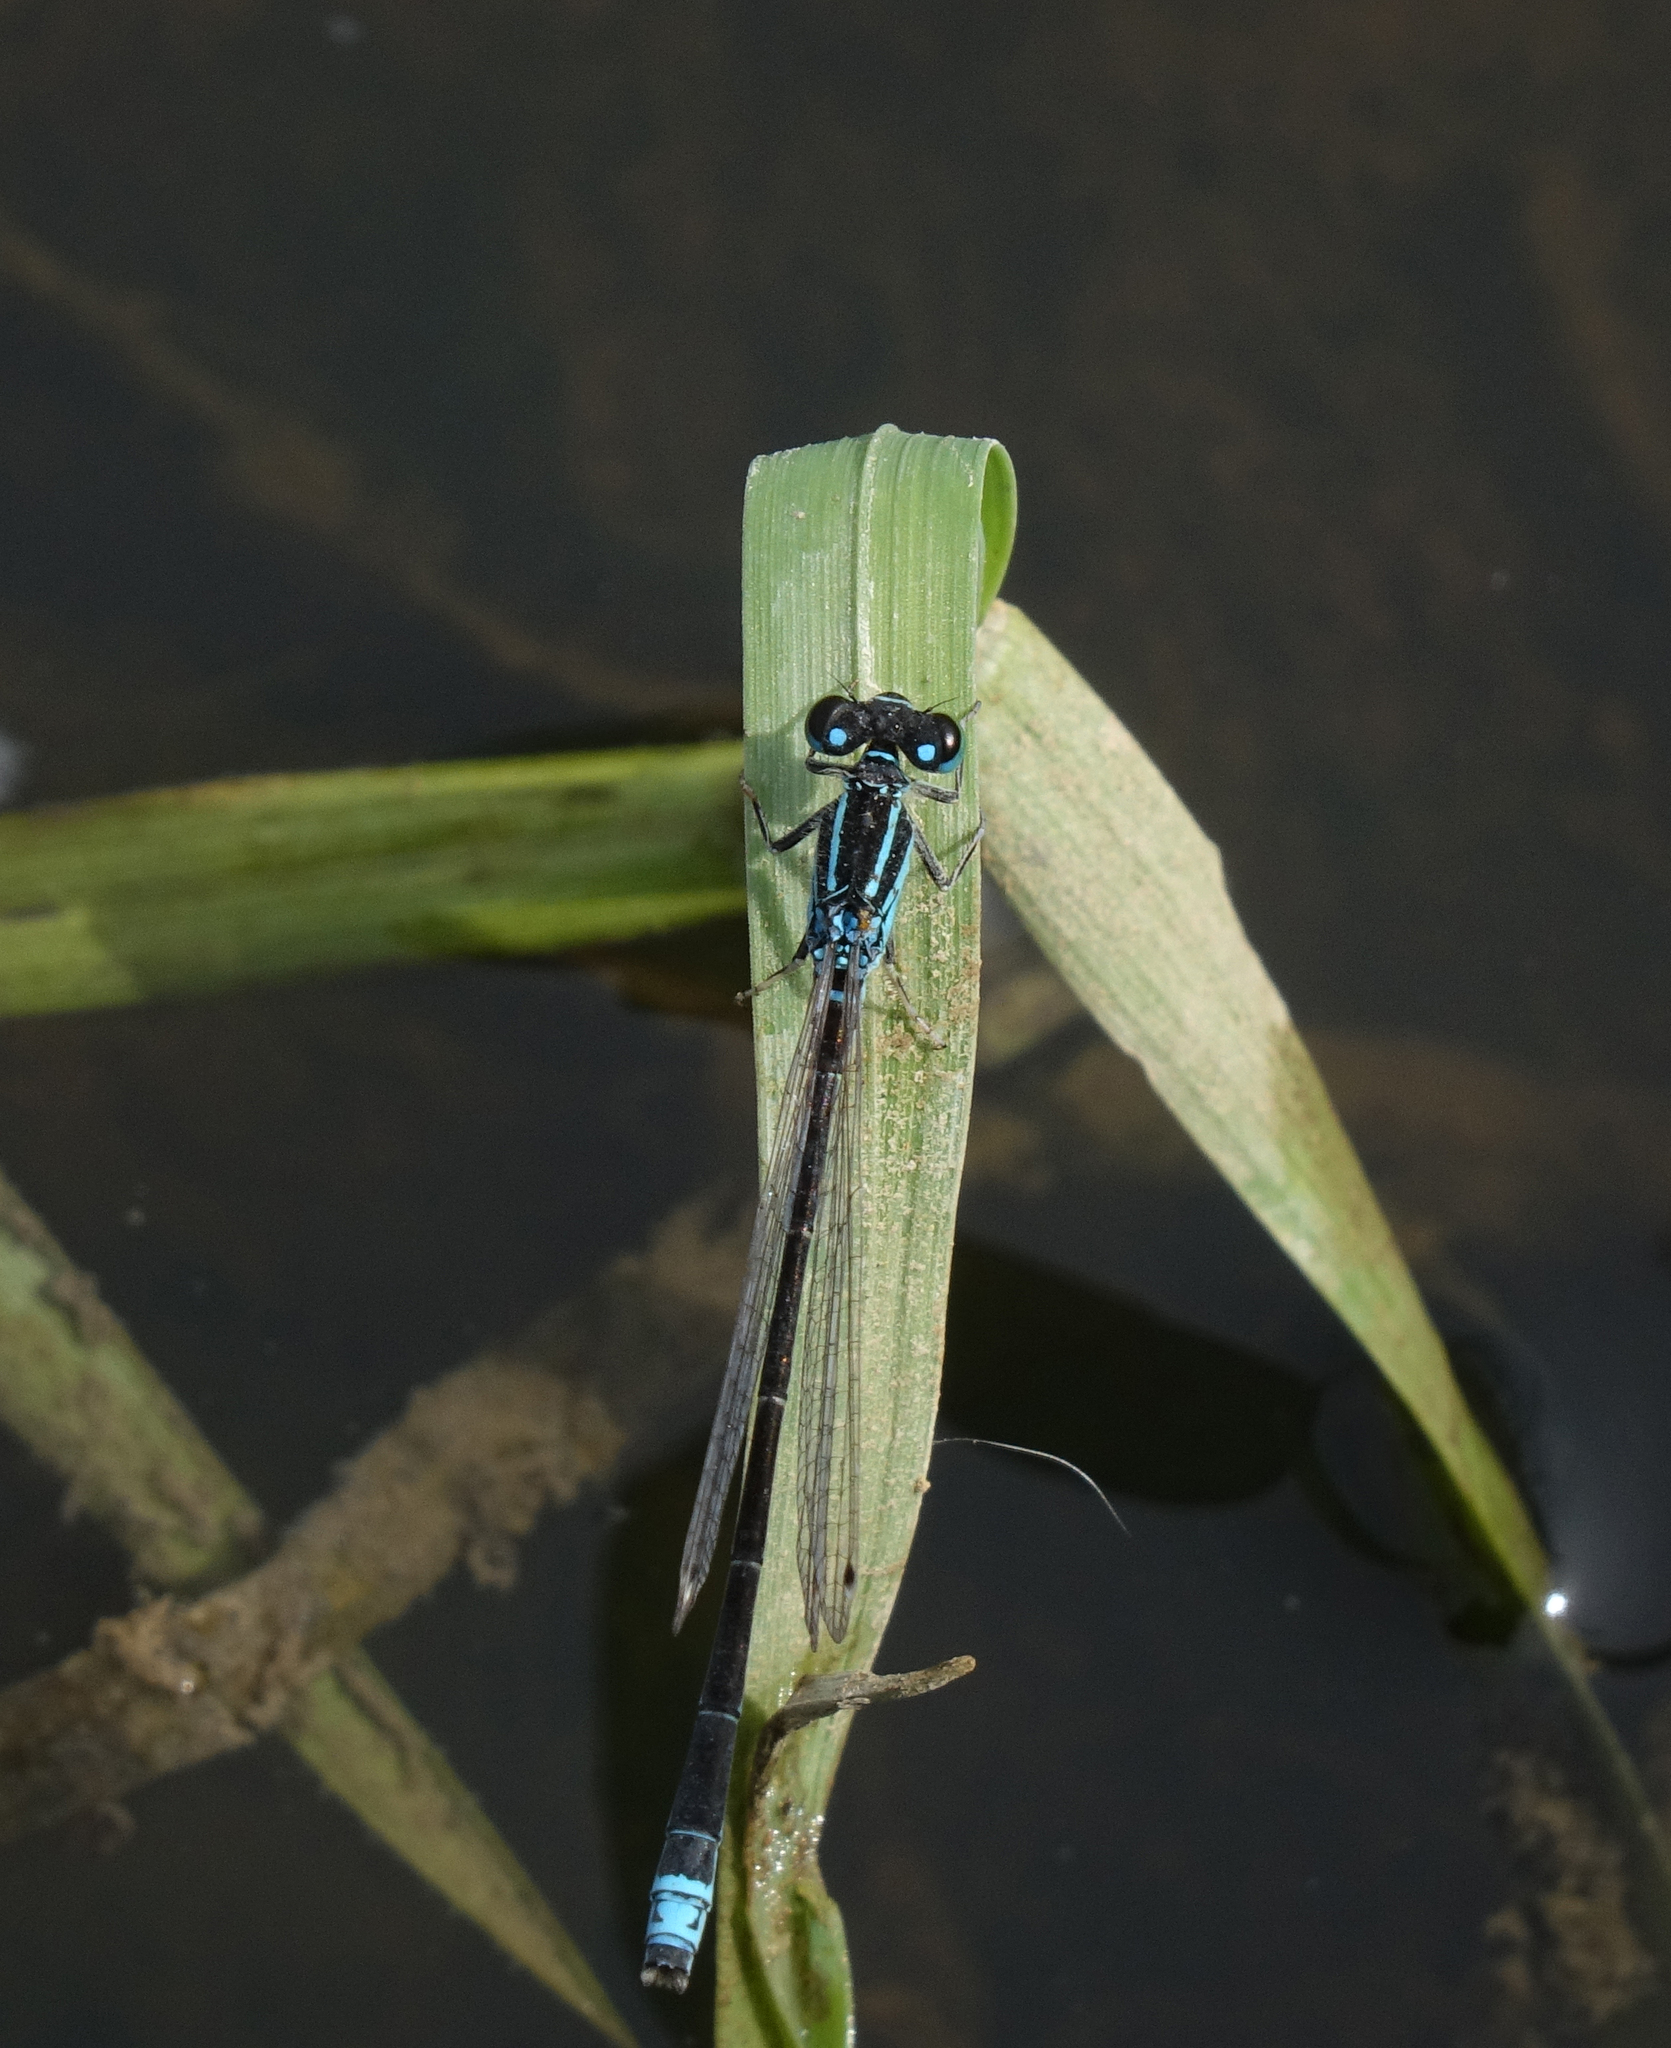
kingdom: Animalia
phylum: Arthropoda
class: Insecta
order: Odonata
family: Coenagrionidae
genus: Ischnura
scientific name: Ischnura pumilio
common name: Scarce blue-tailed damselfly
